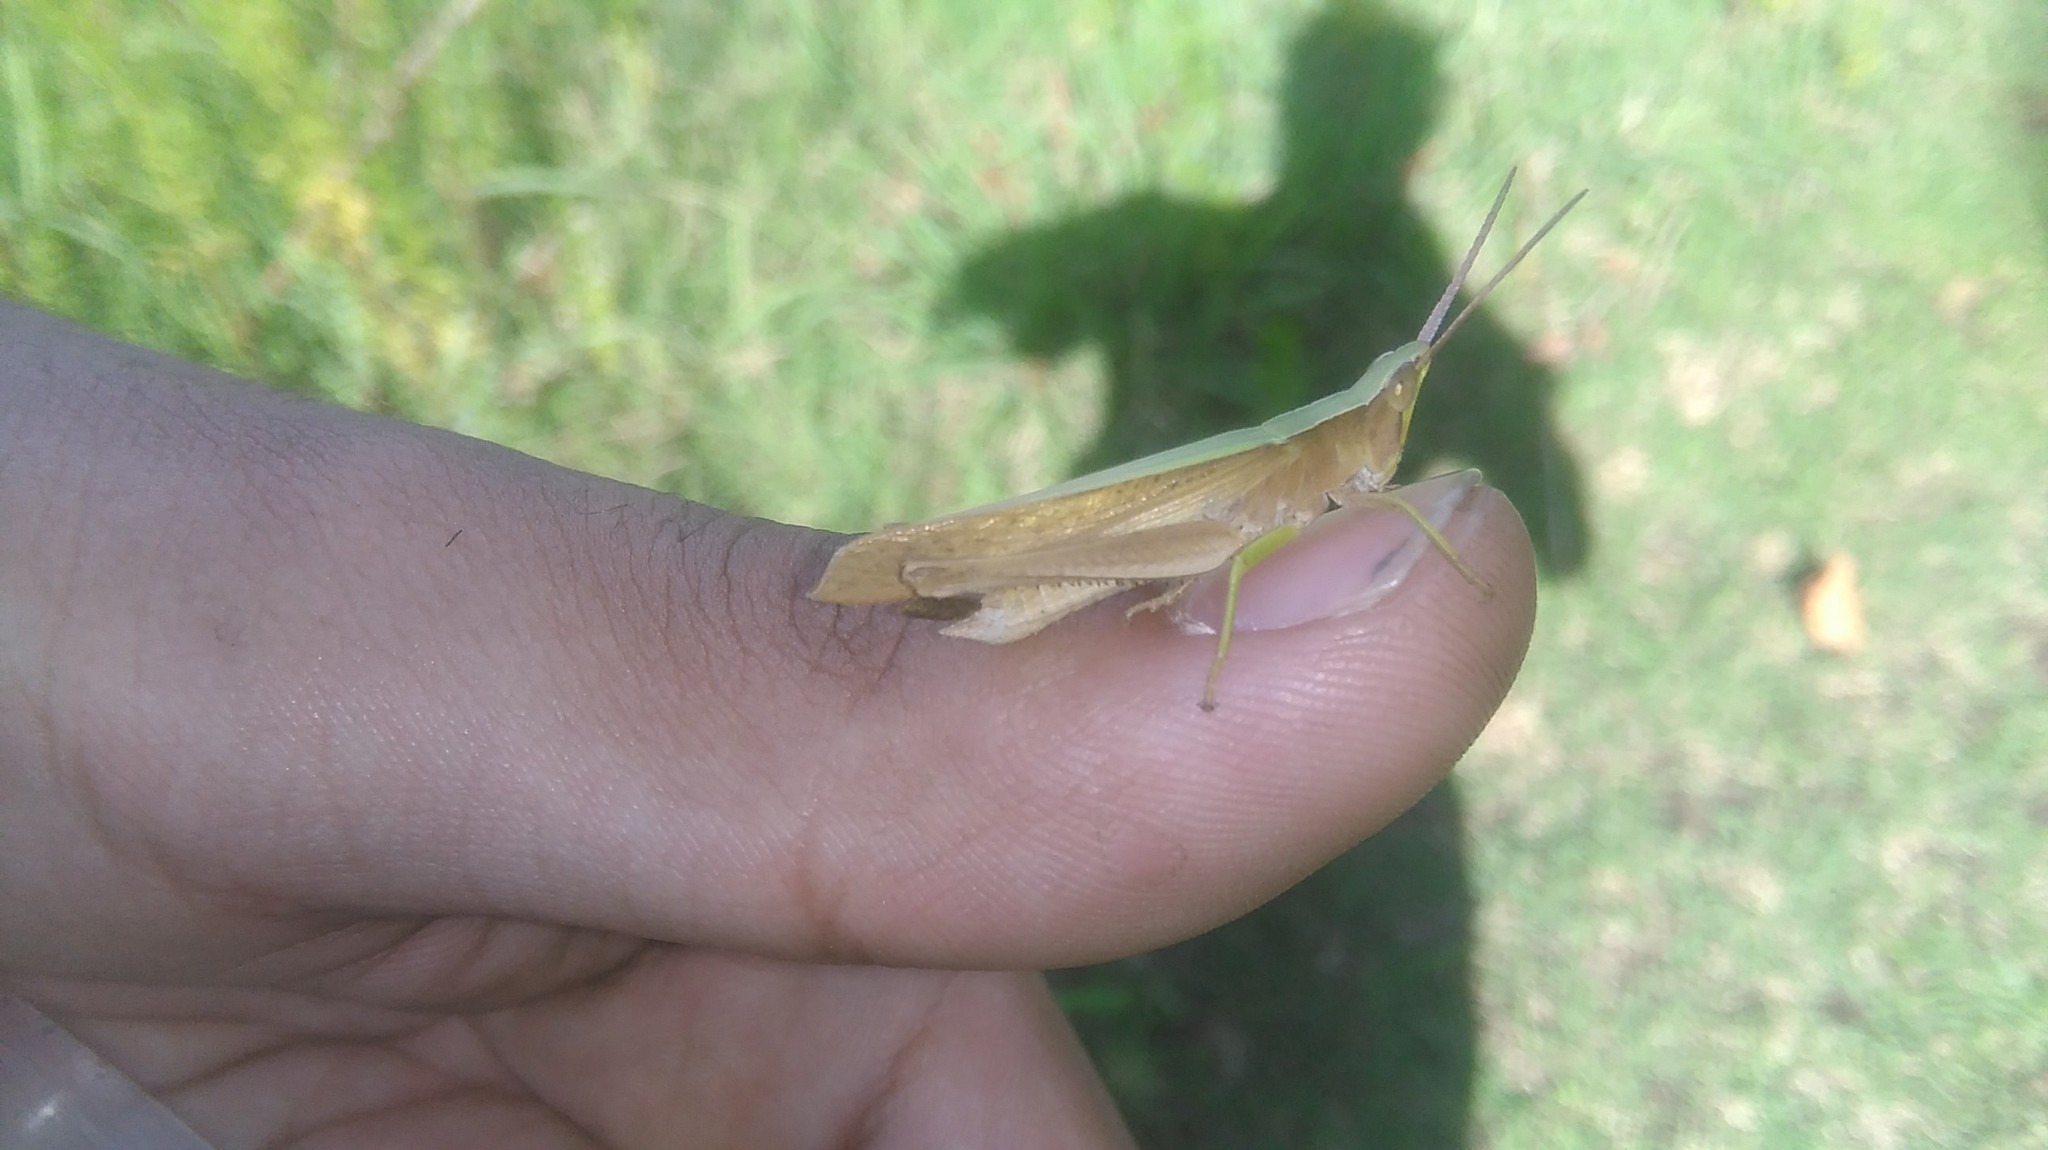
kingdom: Animalia
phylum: Arthropoda
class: Insecta
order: Orthoptera
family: Acrididae
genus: Metaleptea
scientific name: Metaleptea adspersa
